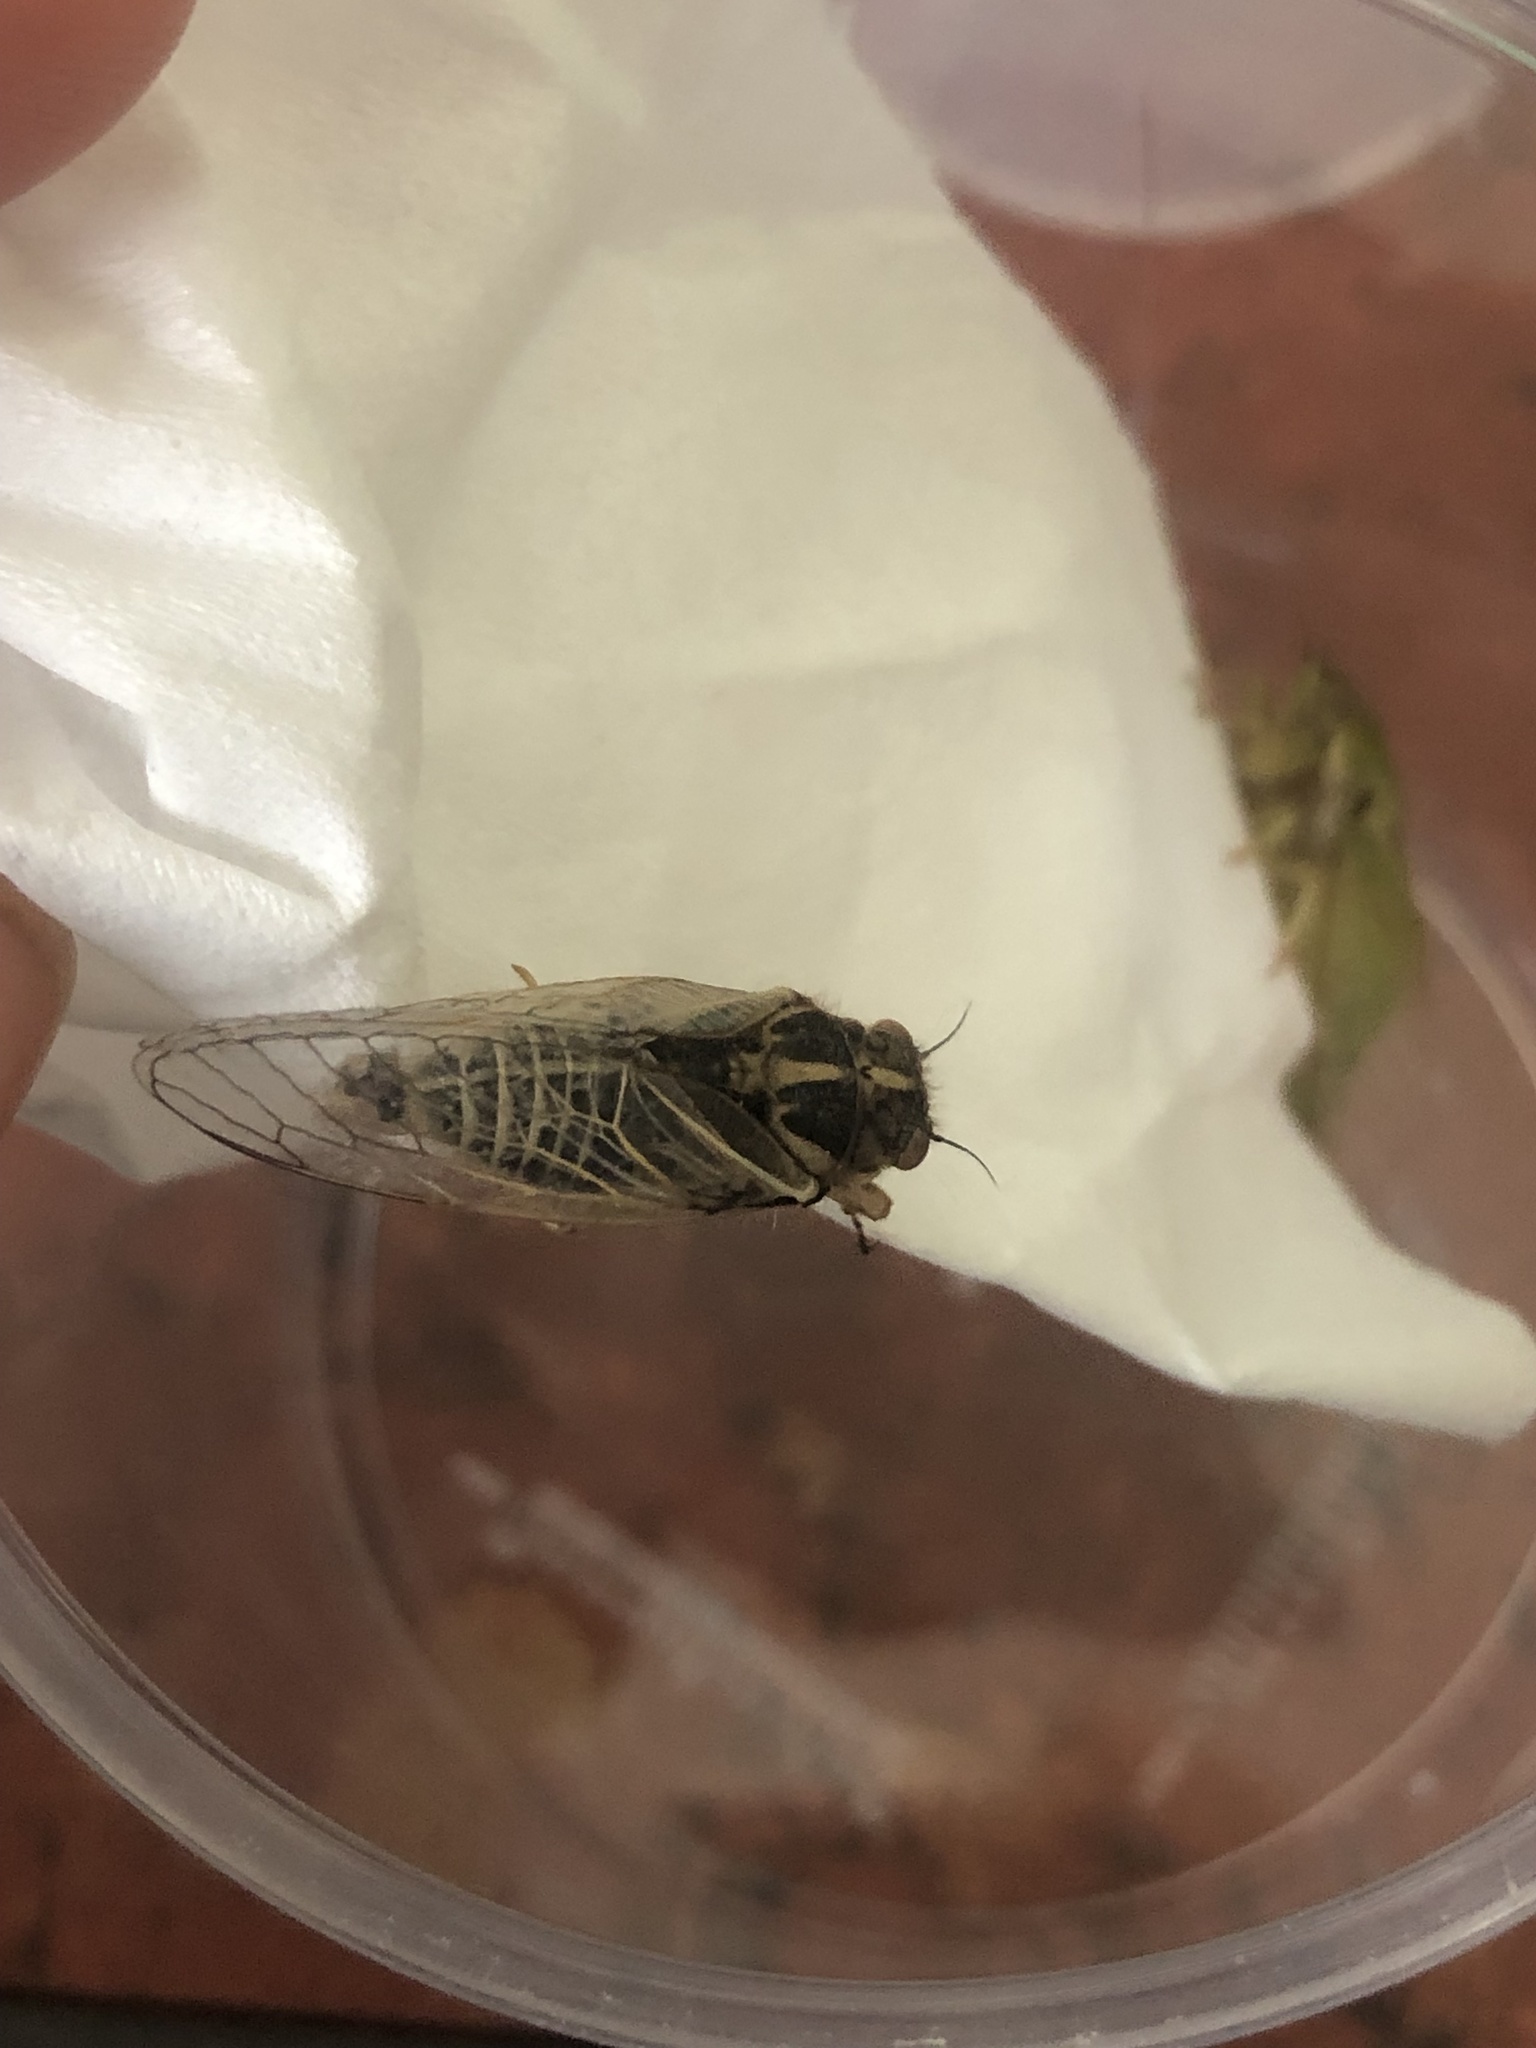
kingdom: Animalia
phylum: Arthropoda
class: Insecta
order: Hemiptera
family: Cicadidae
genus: Kikihia
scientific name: Kikihia angusta
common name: Tussock cicada
